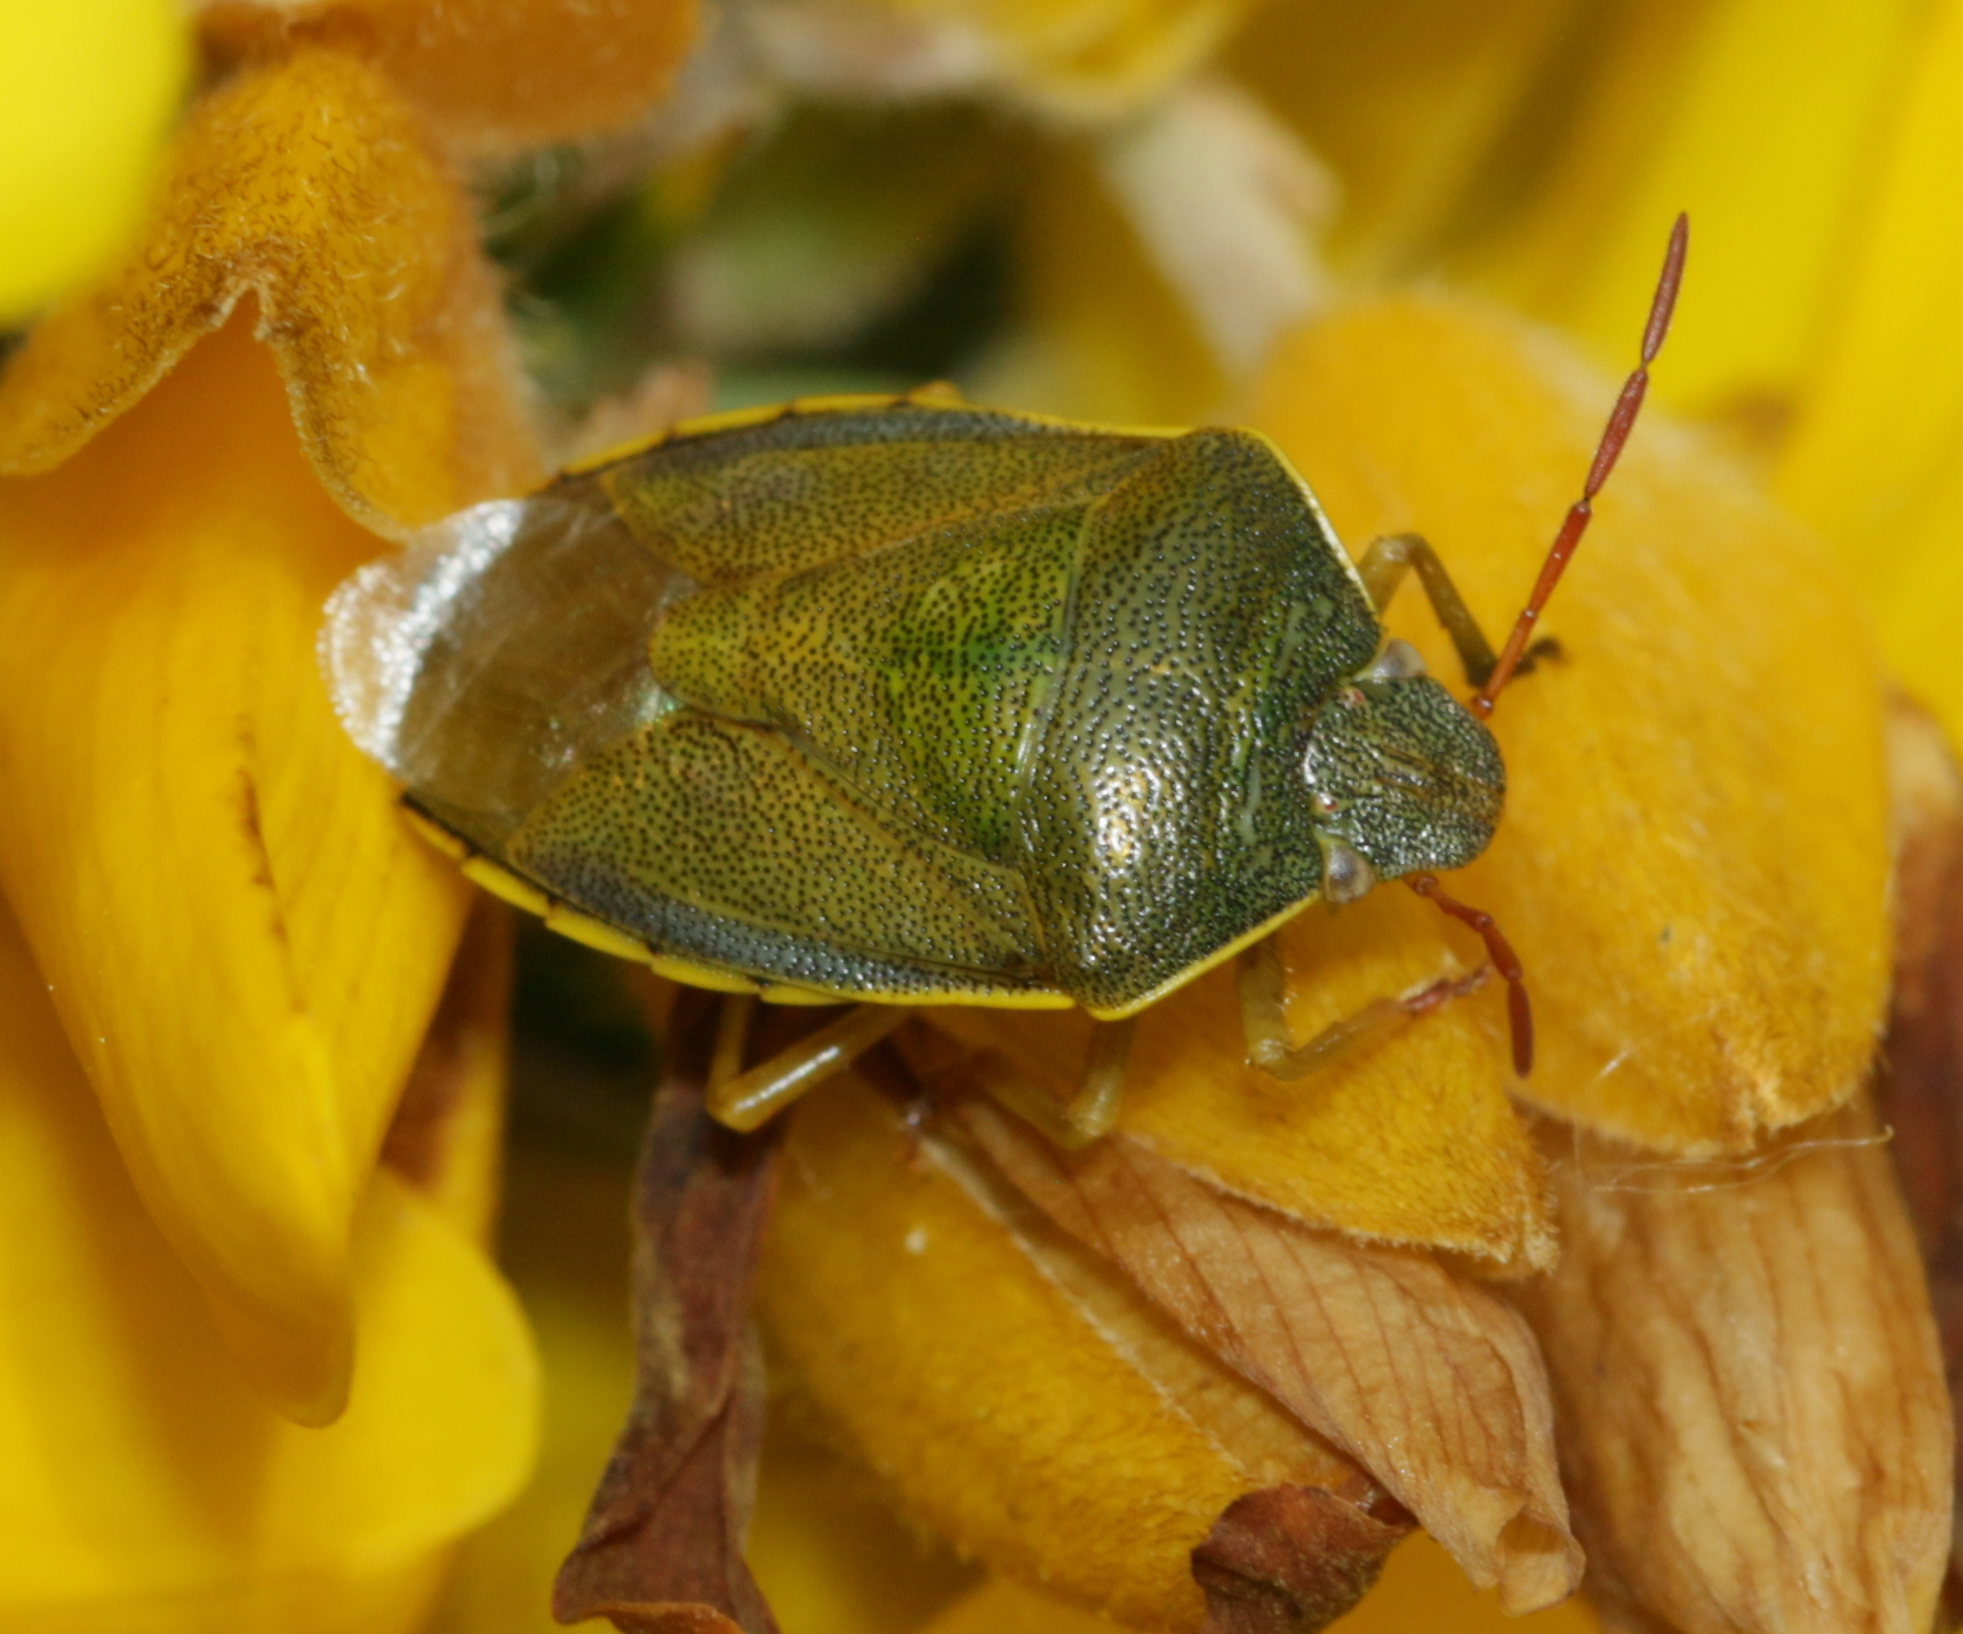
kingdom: Animalia
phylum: Arthropoda
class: Insecta
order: Hemiptera
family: Pentatomidae
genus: Piezodorus
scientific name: Piezodorus lituratus
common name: Stink bug
